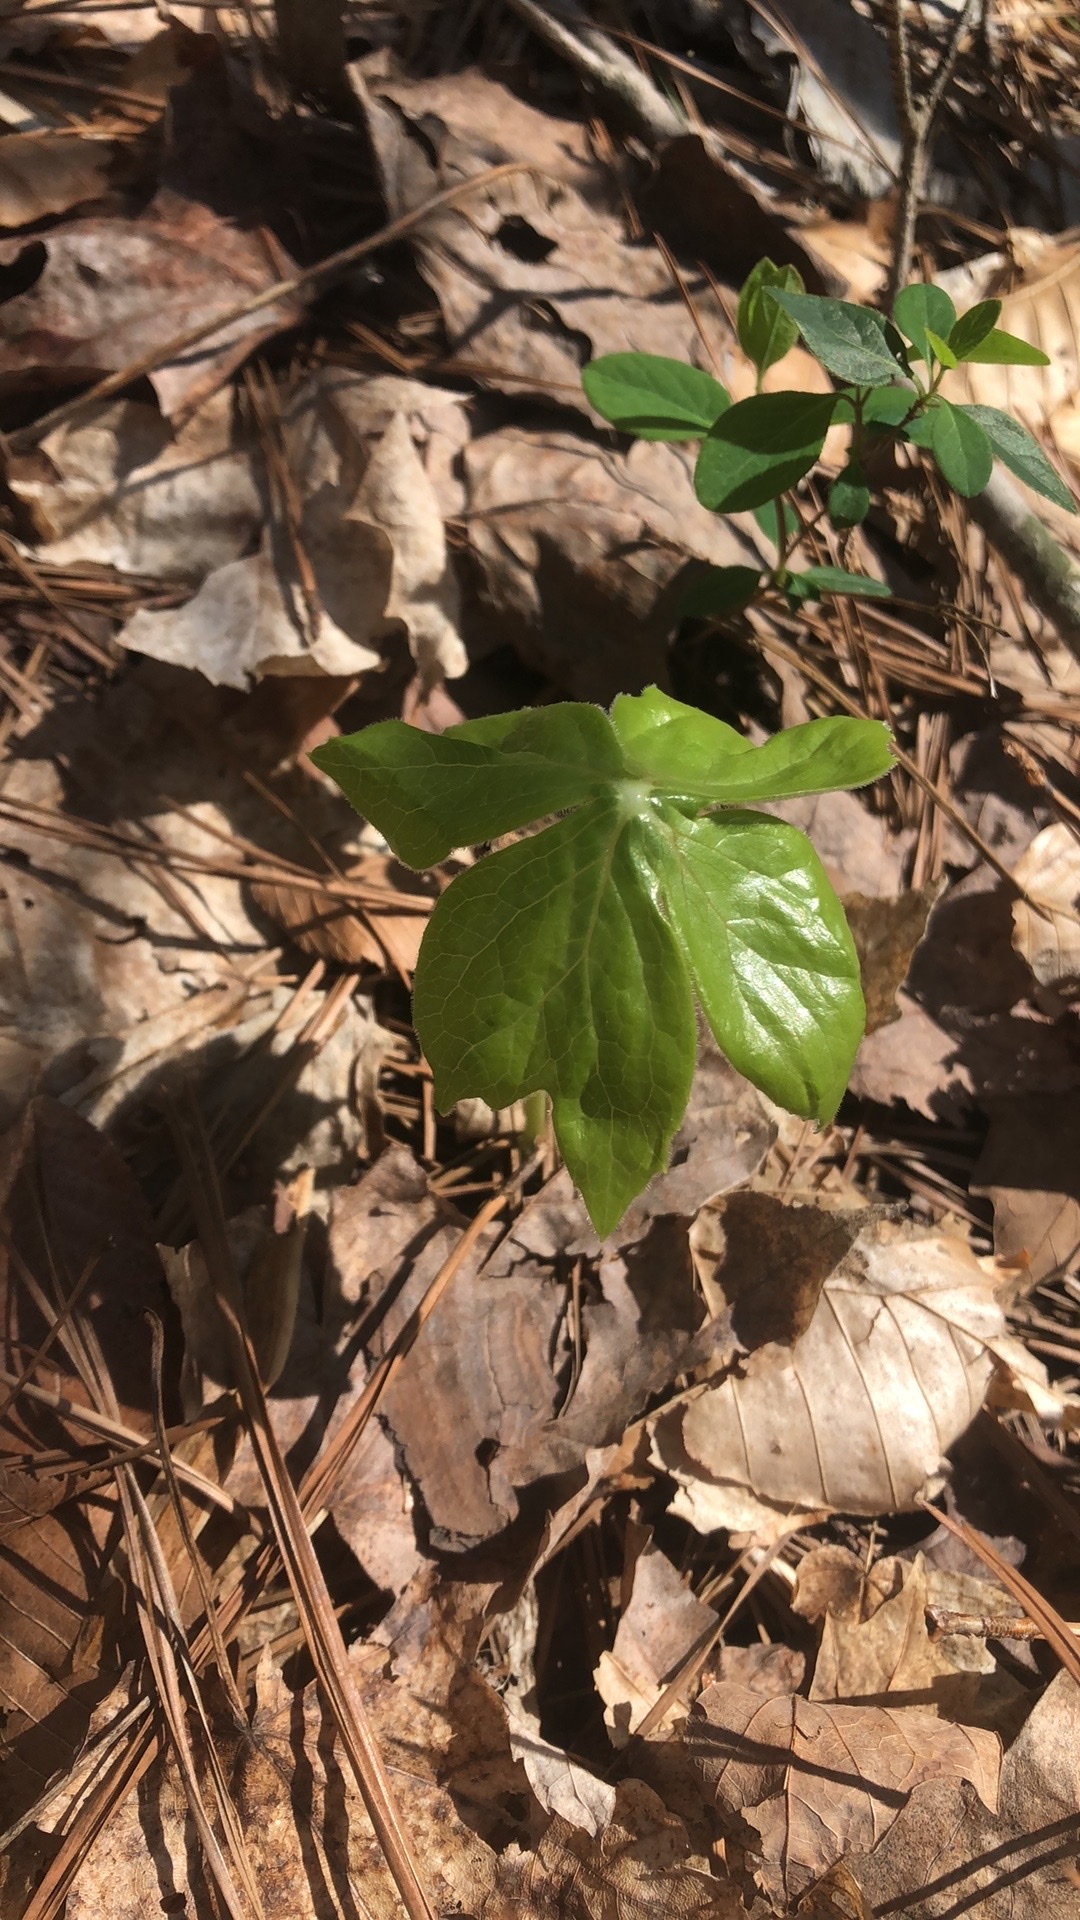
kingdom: Plantae
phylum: Tracheophyta
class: Magnoliopsida
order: Ranunculales
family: Berberidaceae
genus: Podophyllum
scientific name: Podophyllum peltatum
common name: Wild mandrake
